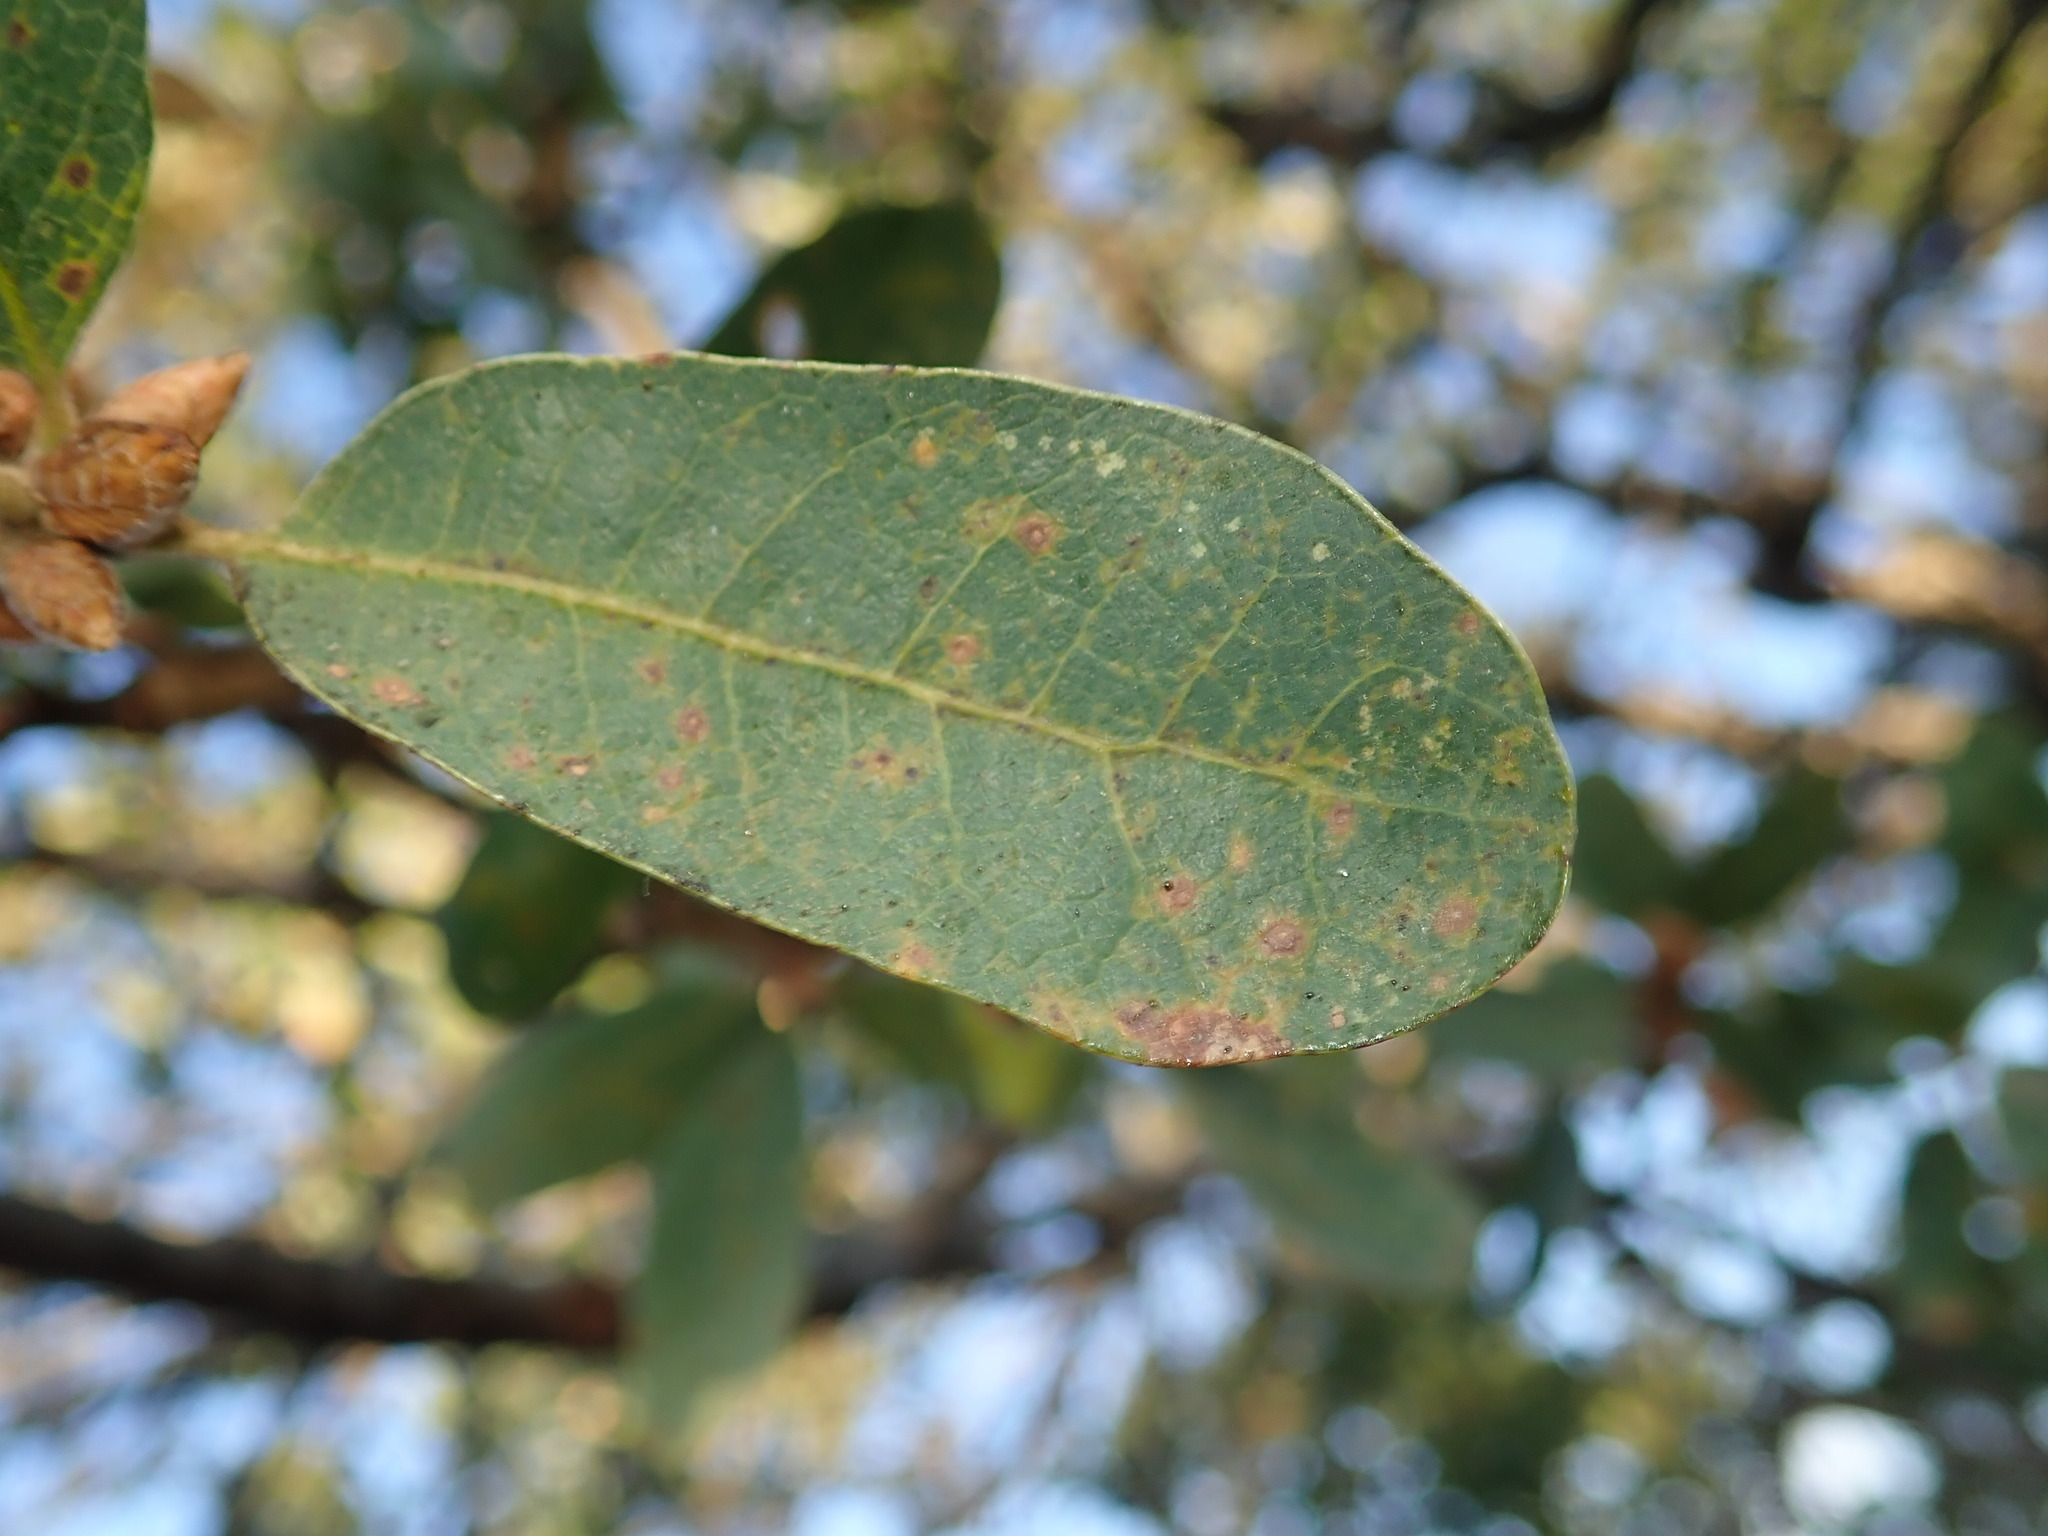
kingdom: Plantae
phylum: Tracheophyta
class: Magnoliopsida
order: Fagales
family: Fagaceae
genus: Quercus
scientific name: Quercus douglasii
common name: Blue oak
